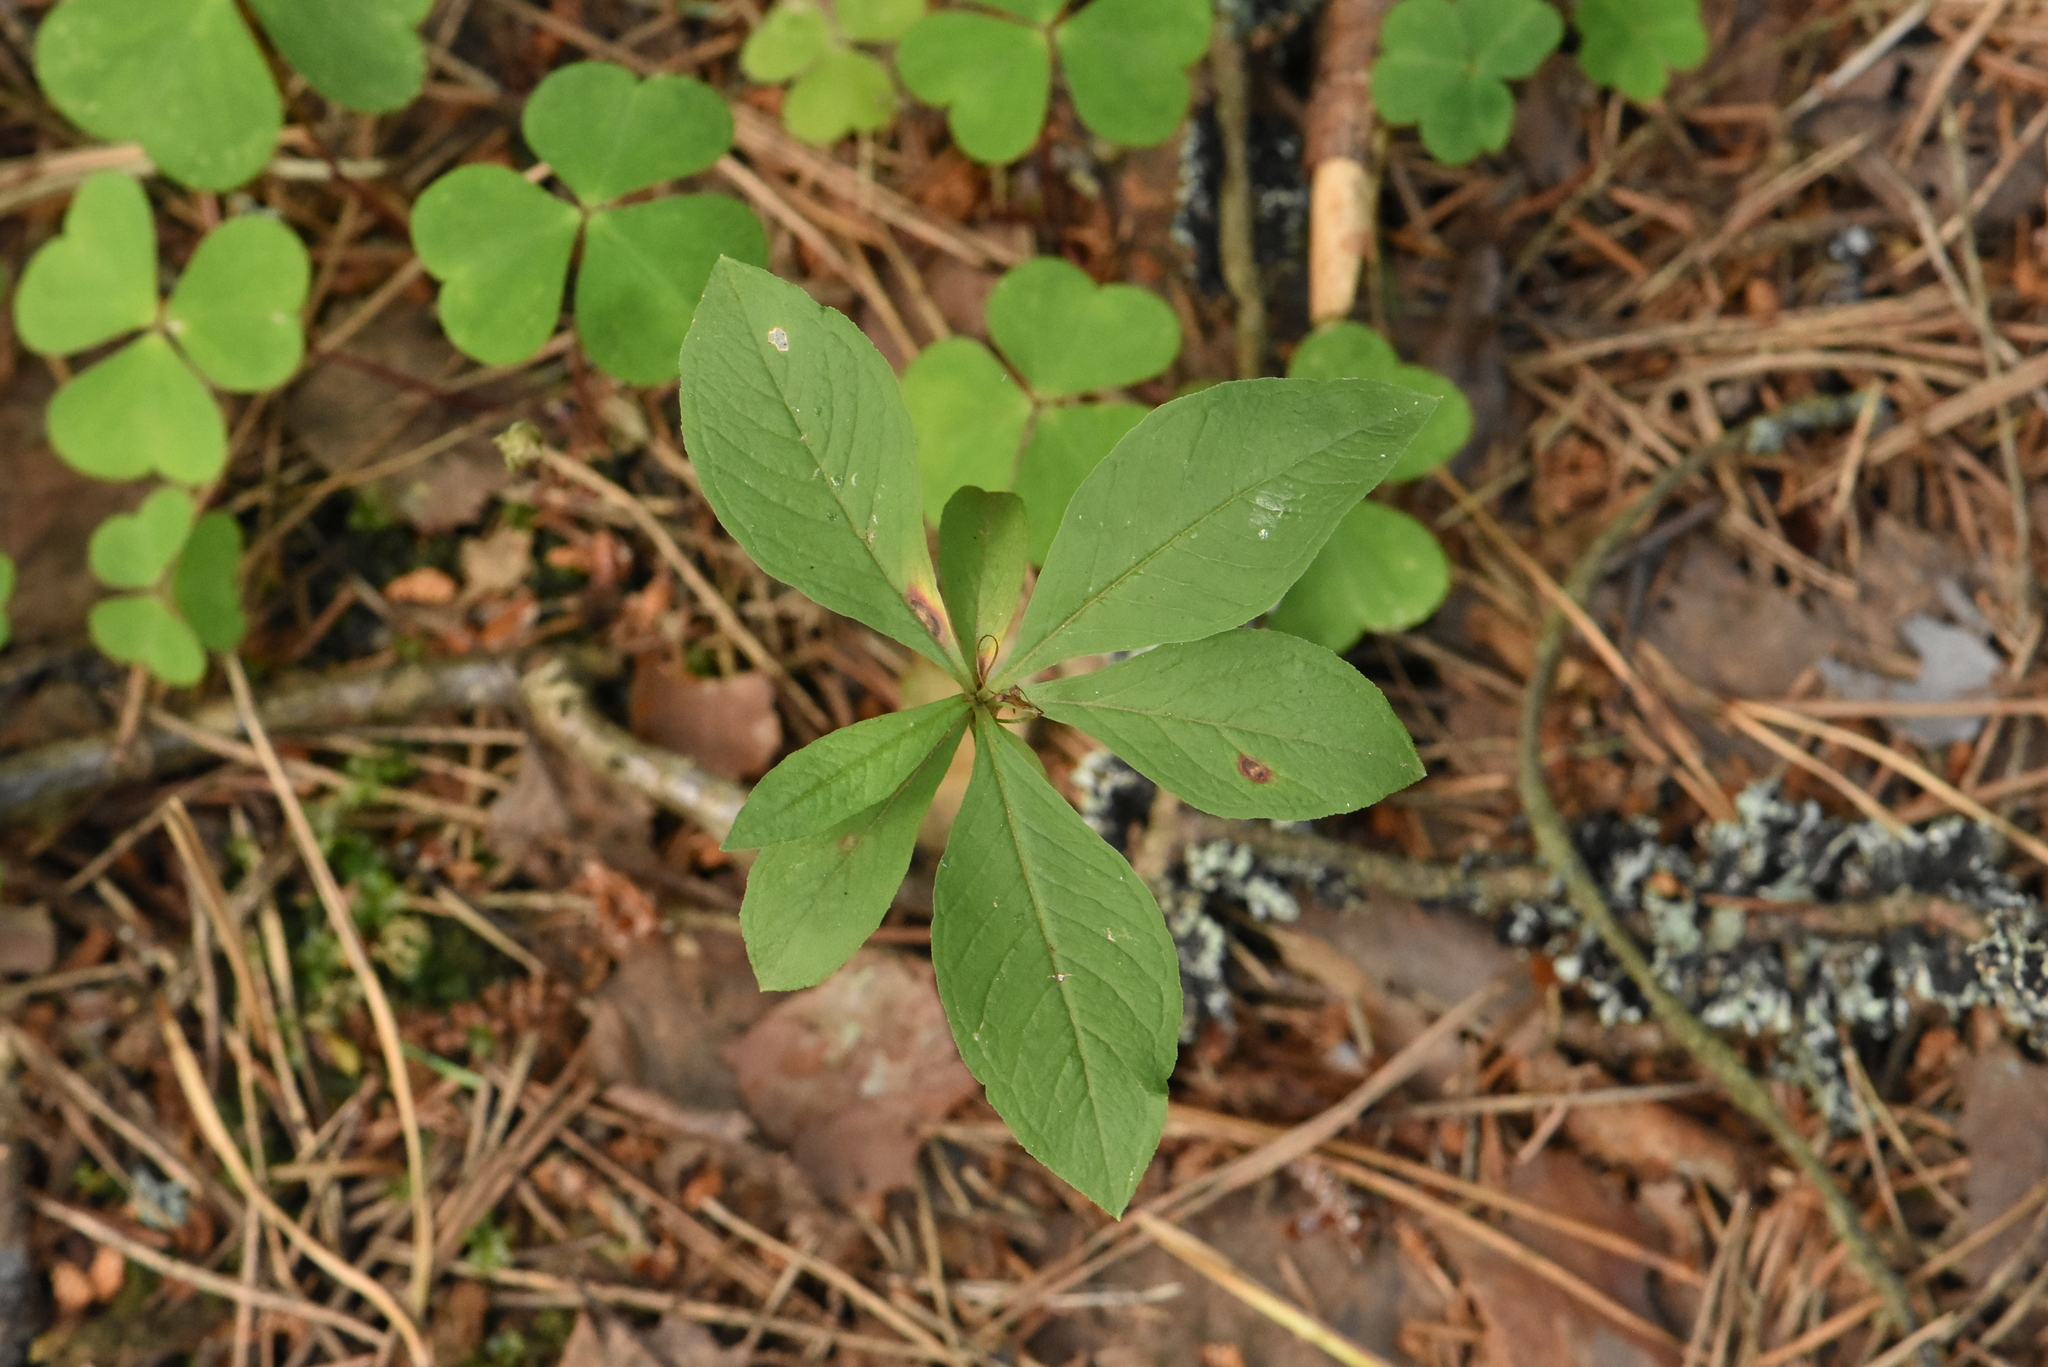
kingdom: Plantae
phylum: Tracheophyta
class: Magnoliopsida
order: Ericales
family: Primulaceae
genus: Lysimachia
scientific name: Lysimachia europaea
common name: Arctic starflower
